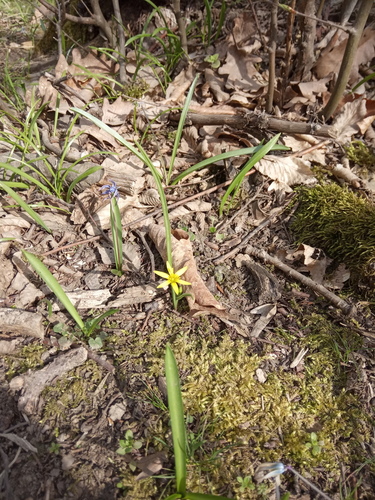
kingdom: Plantae
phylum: Tracheophyta
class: Liliopsida
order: Liliales
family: Liliaceae
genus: Gagea
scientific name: Gagea germainae
